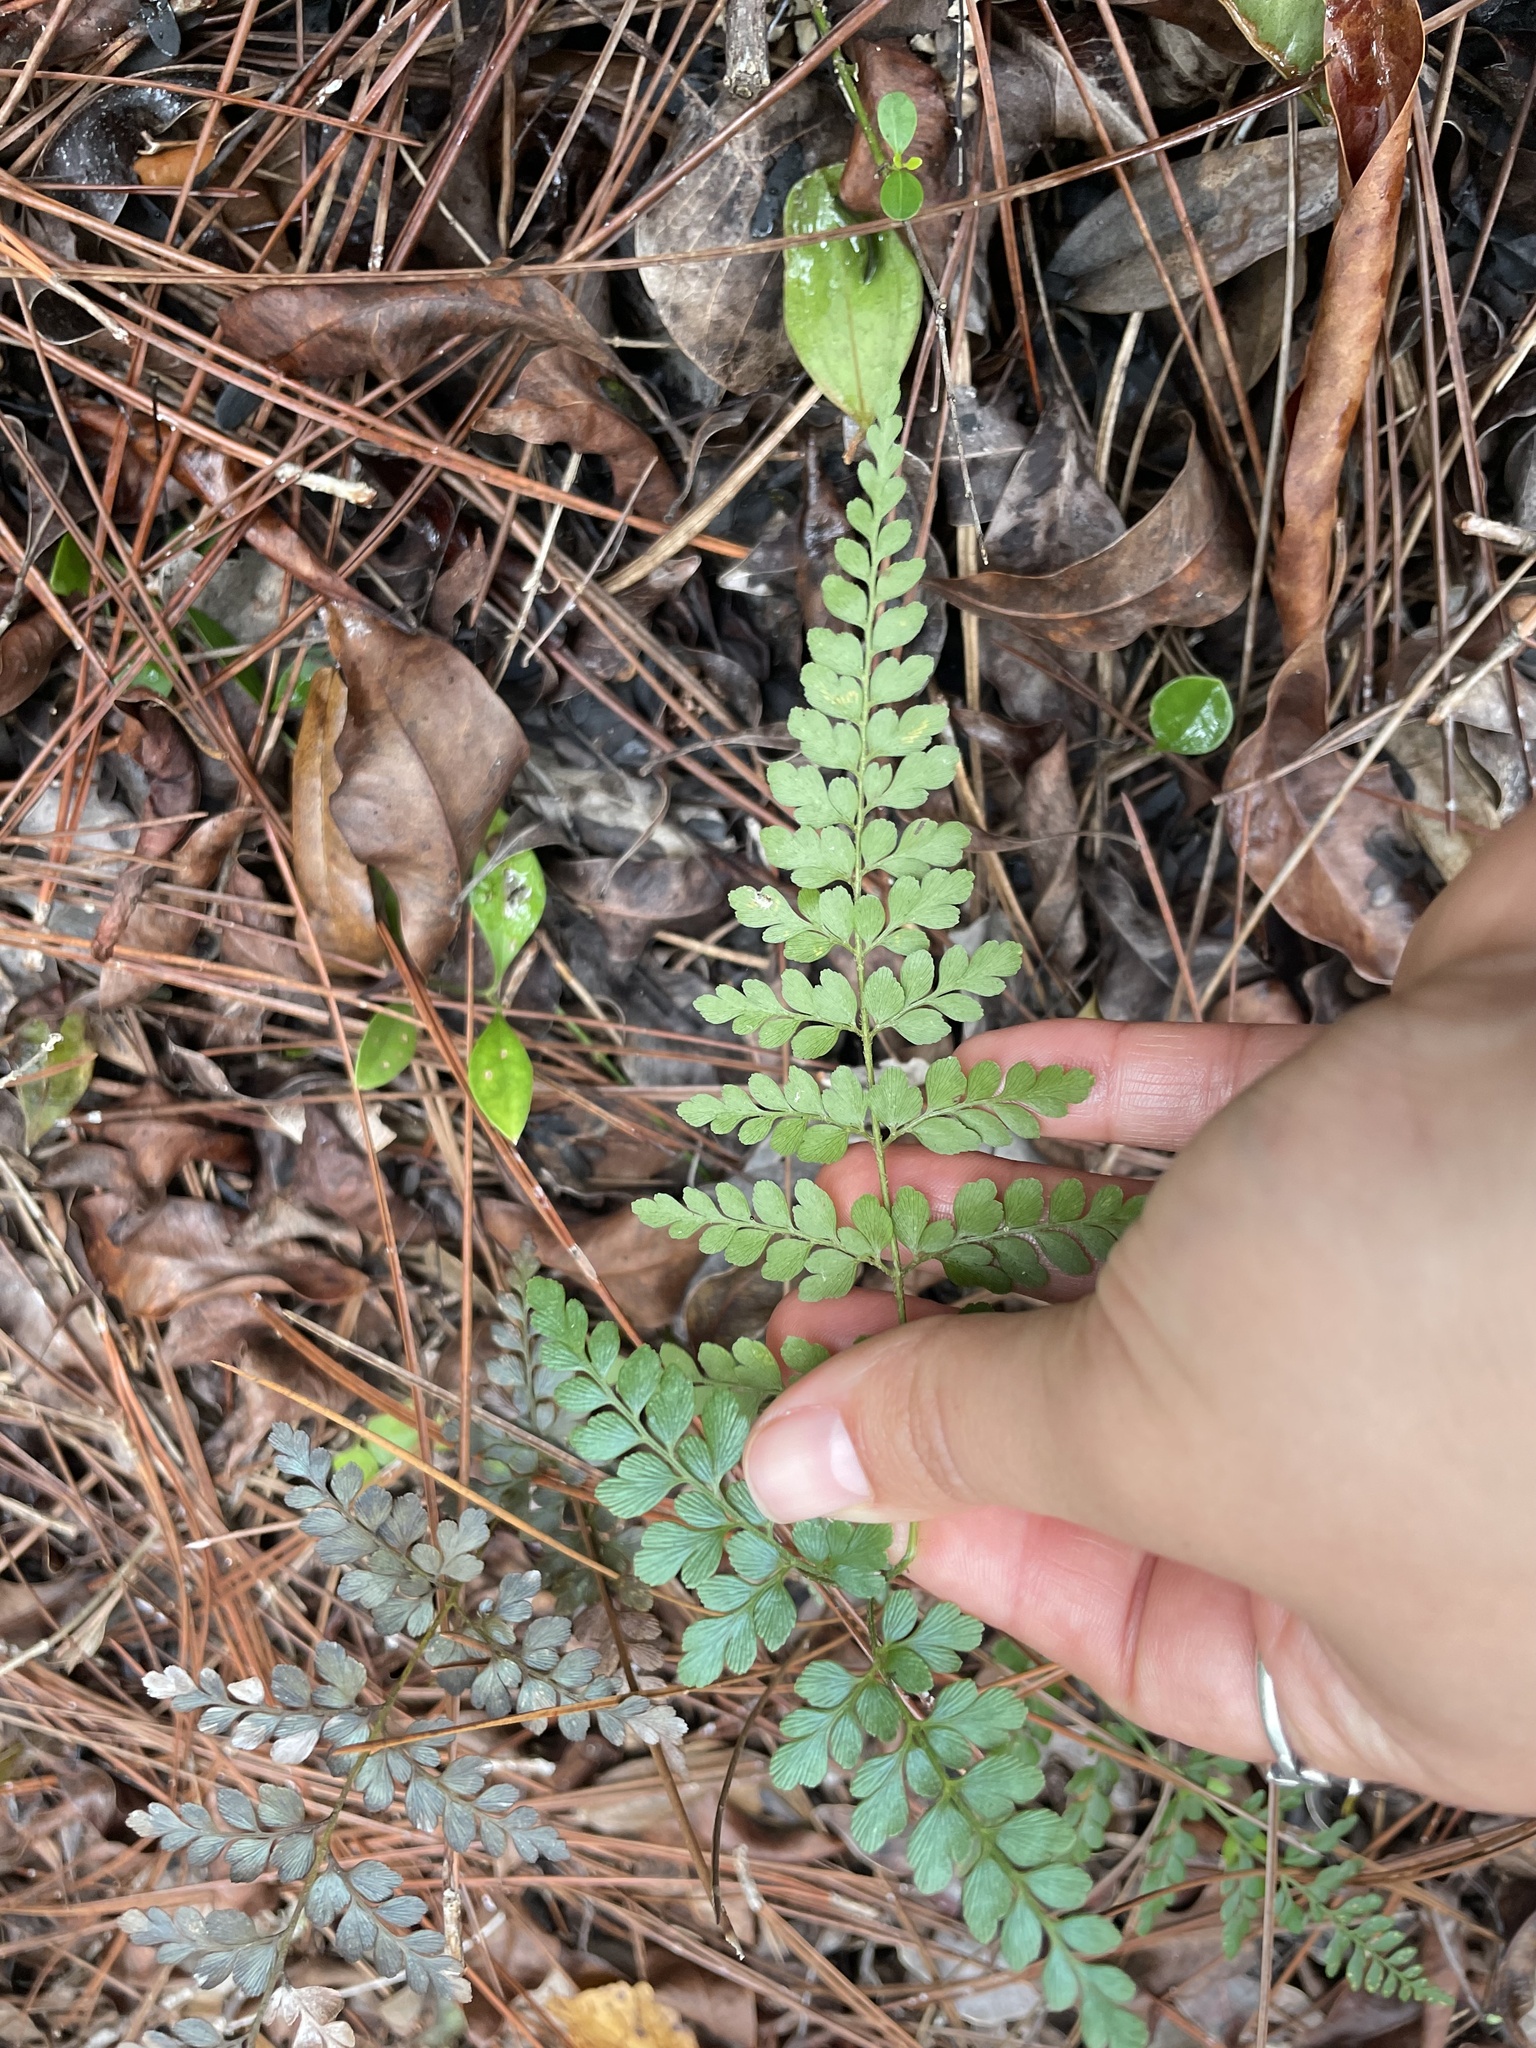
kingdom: Plantae
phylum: Tracheophyta
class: Polypodiopsida
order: Schizaeales
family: Anemiaceae
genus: Anemia
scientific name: Anemia adiantifolia
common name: Pine fern
